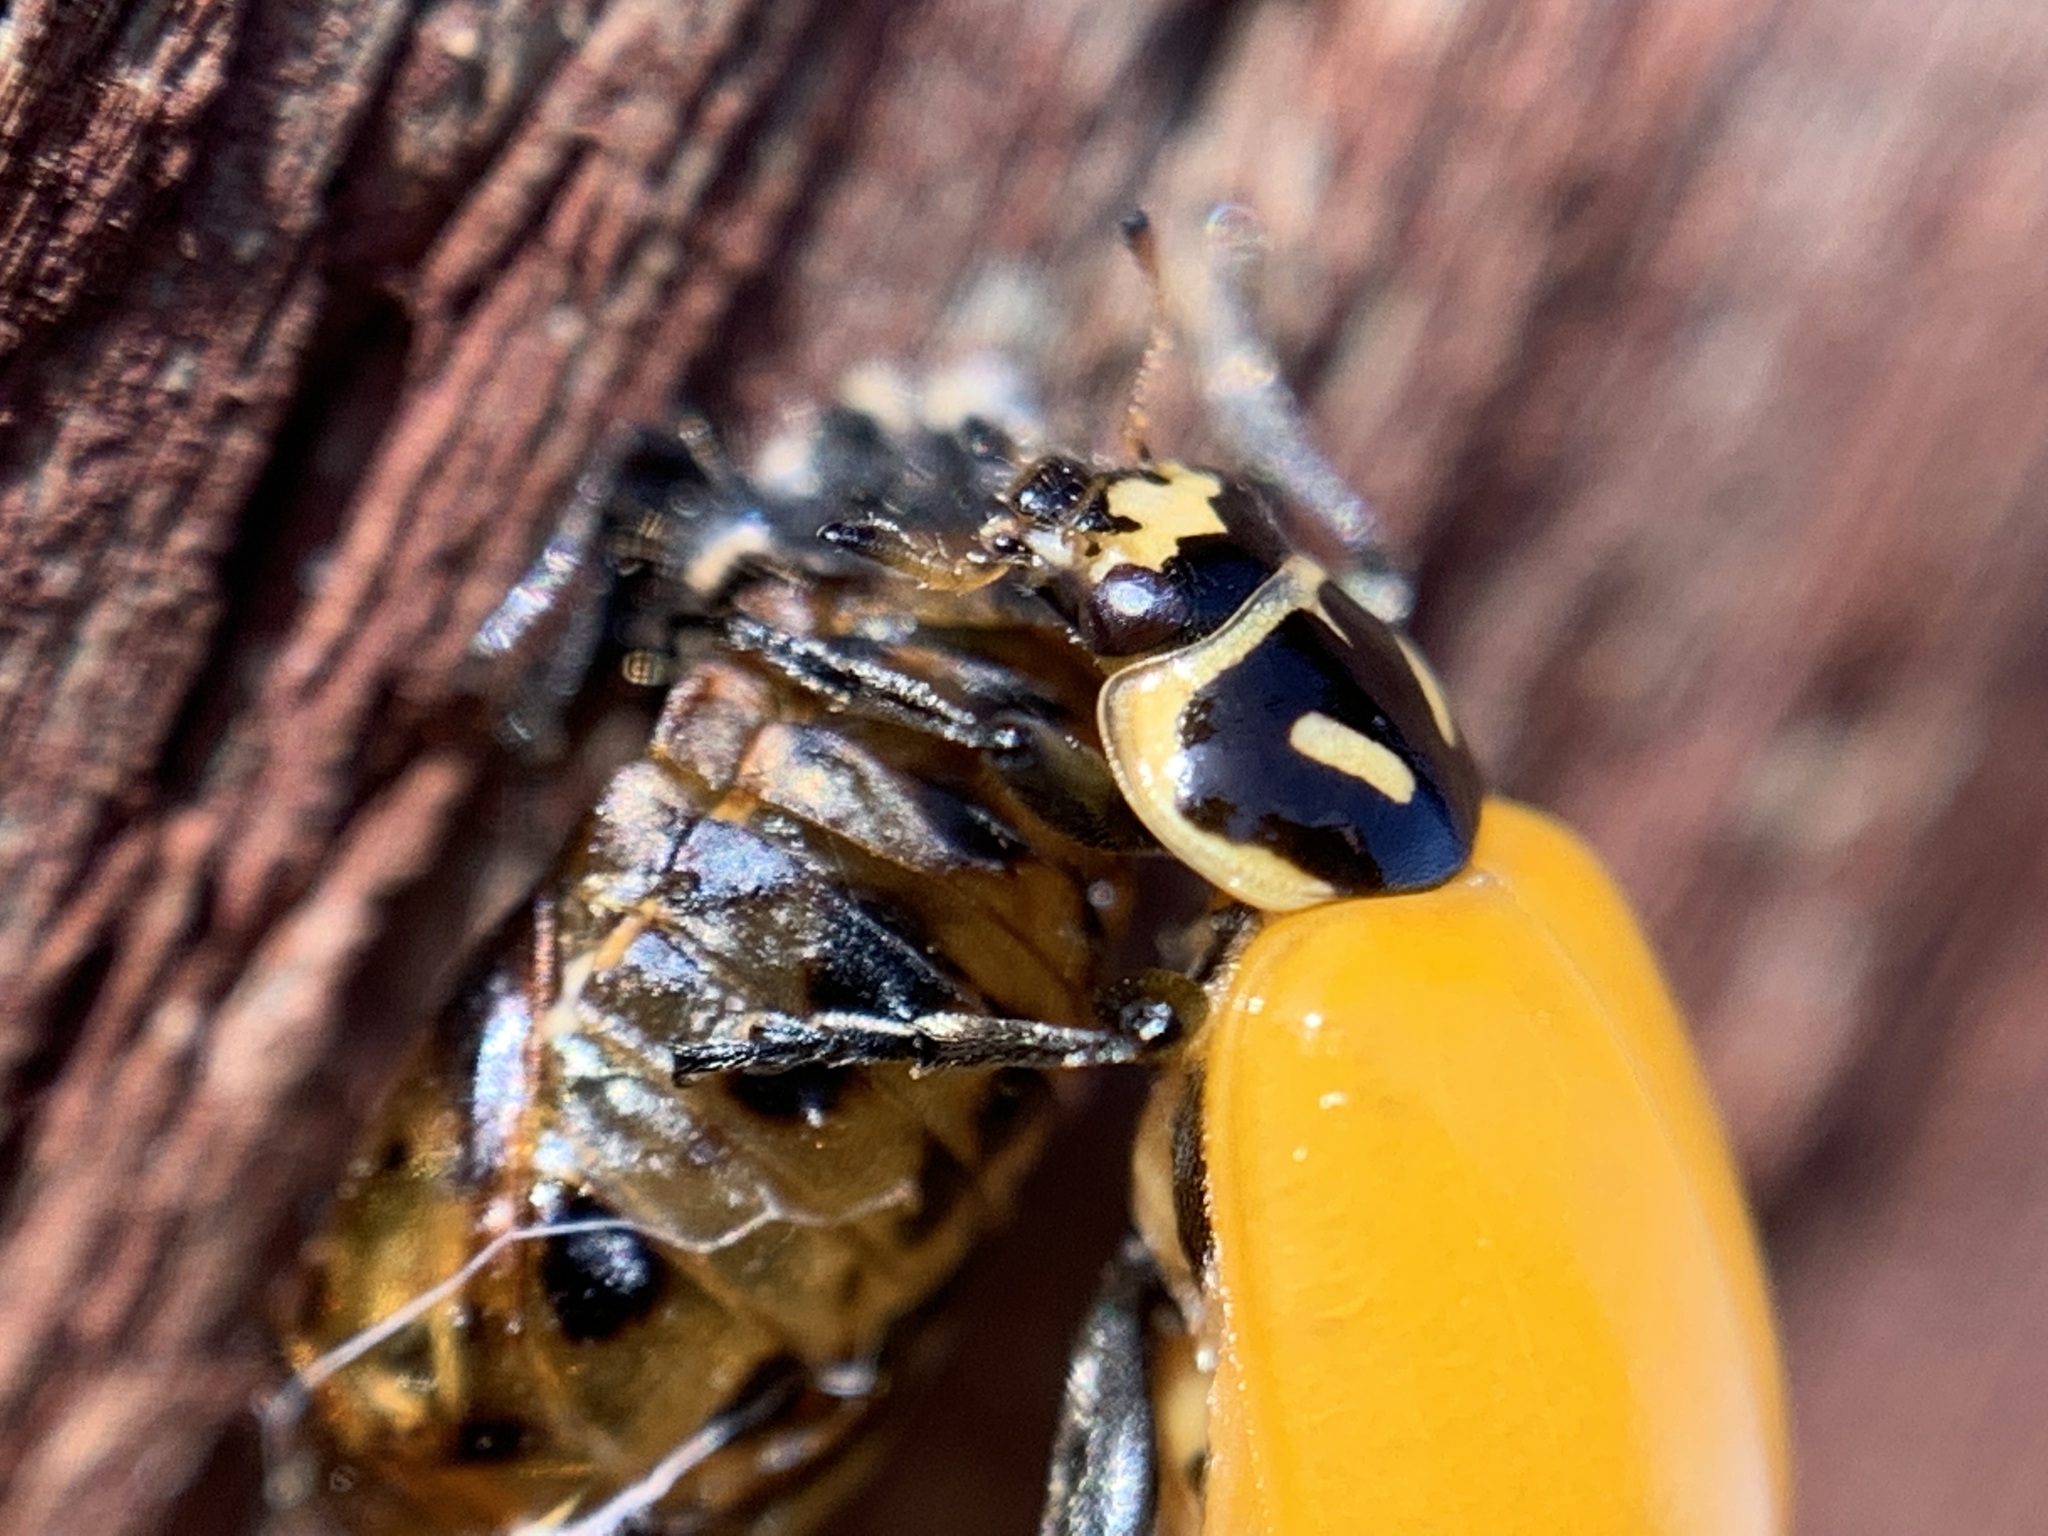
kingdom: Animalia
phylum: Arthropoda
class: Insecta
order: Coleoptera
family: Coccinellidae
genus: Hippodamia
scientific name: Hippodamia convergens
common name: Convergent lady beetle
